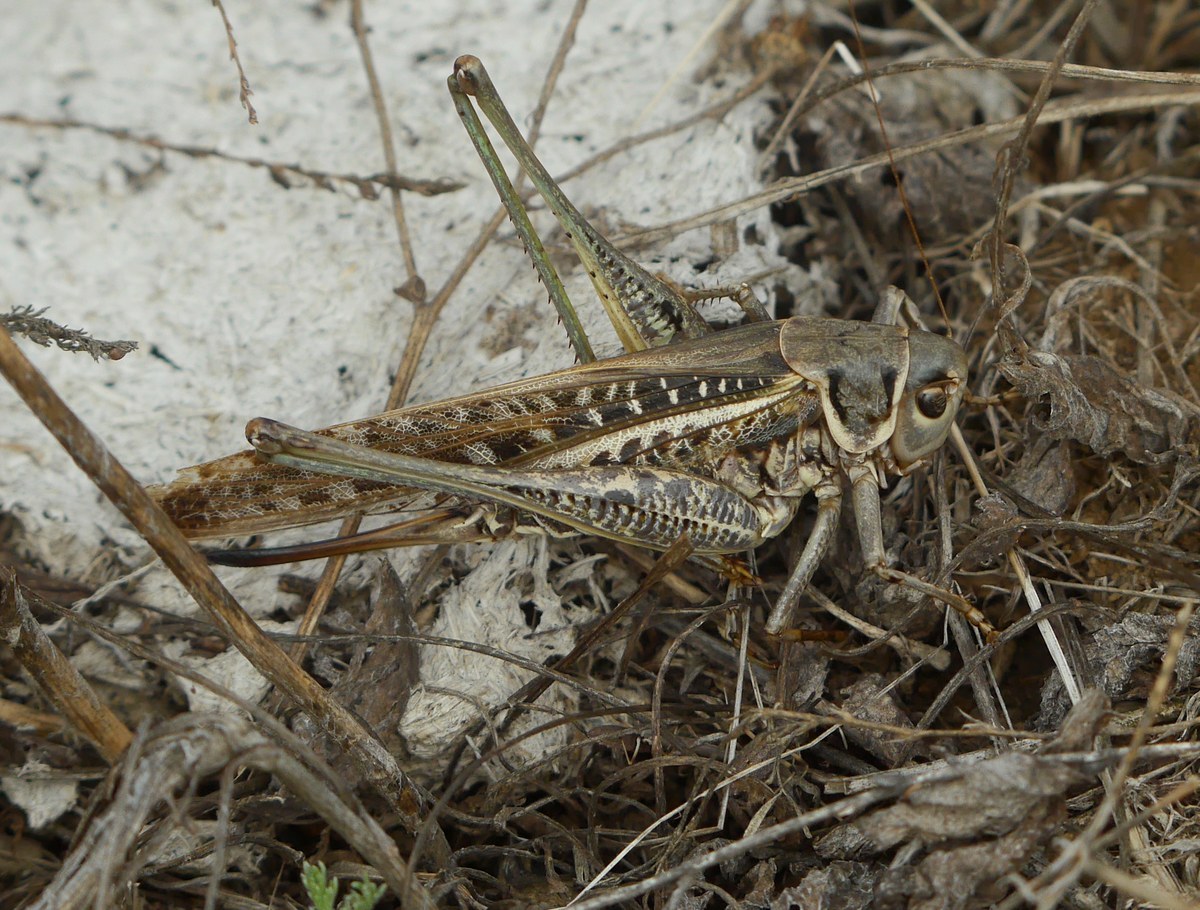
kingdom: Animalia
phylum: Arthropoda
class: Insecta
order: Orthoptera
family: Tettigoniidae
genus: Decticus
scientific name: Decticus albifrons
